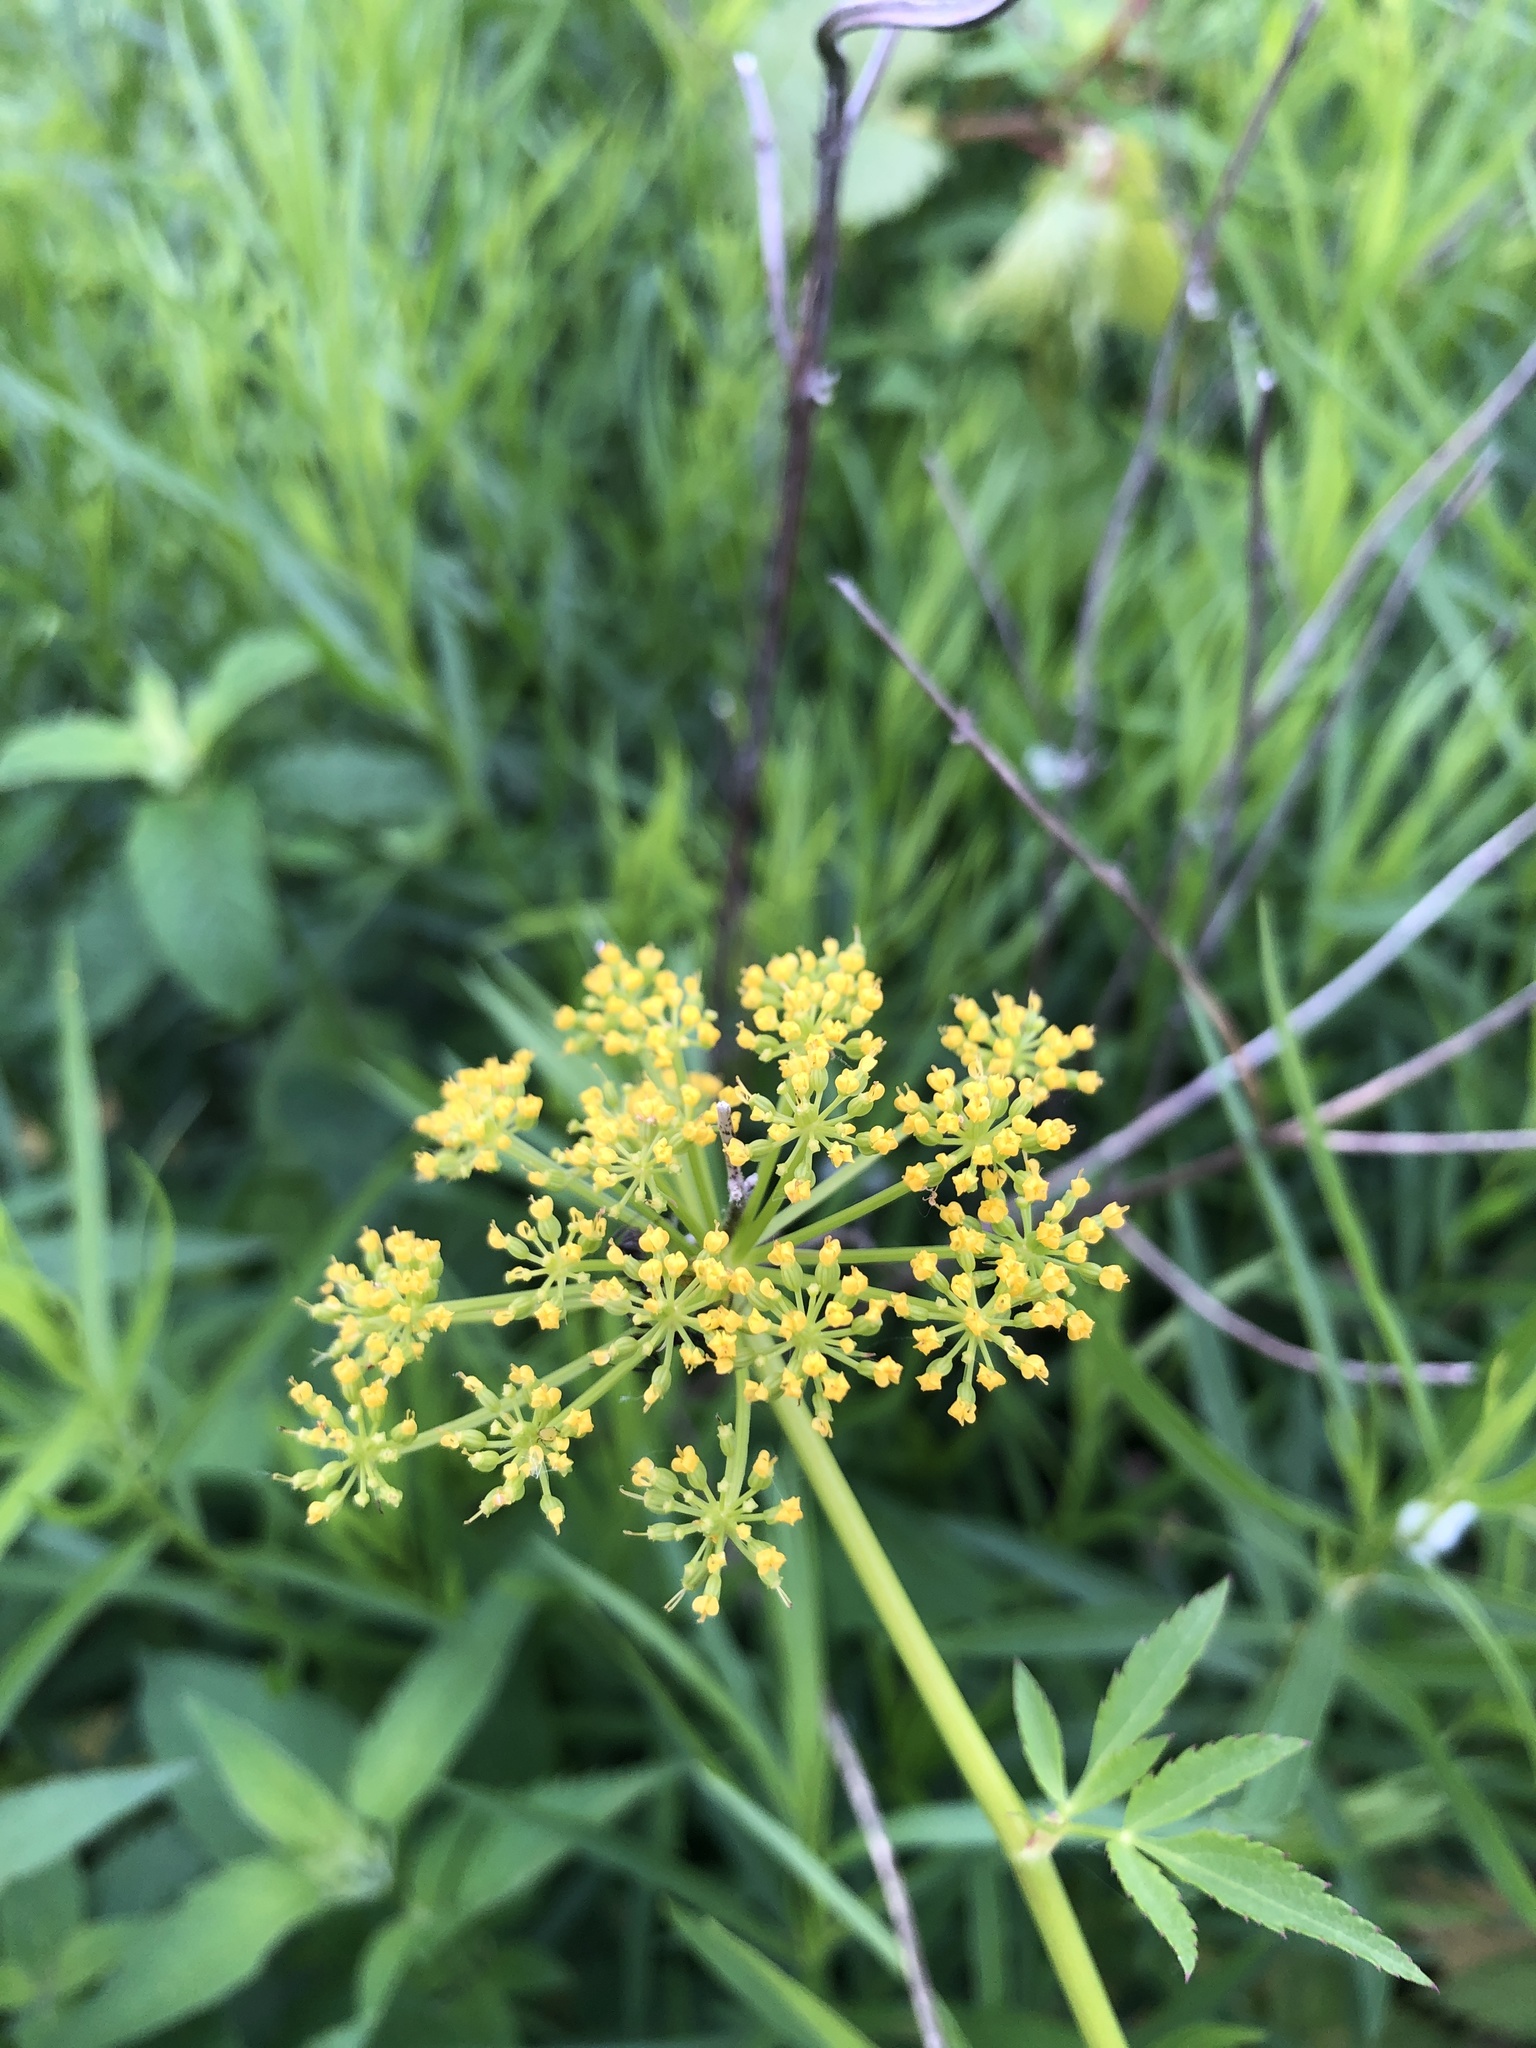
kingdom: Plantae
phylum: Tracheophyta
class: Magnoliopsida
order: Apiales
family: Apiaceae
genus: Zizia
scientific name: Zizia aurea
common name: Golden alexanders
